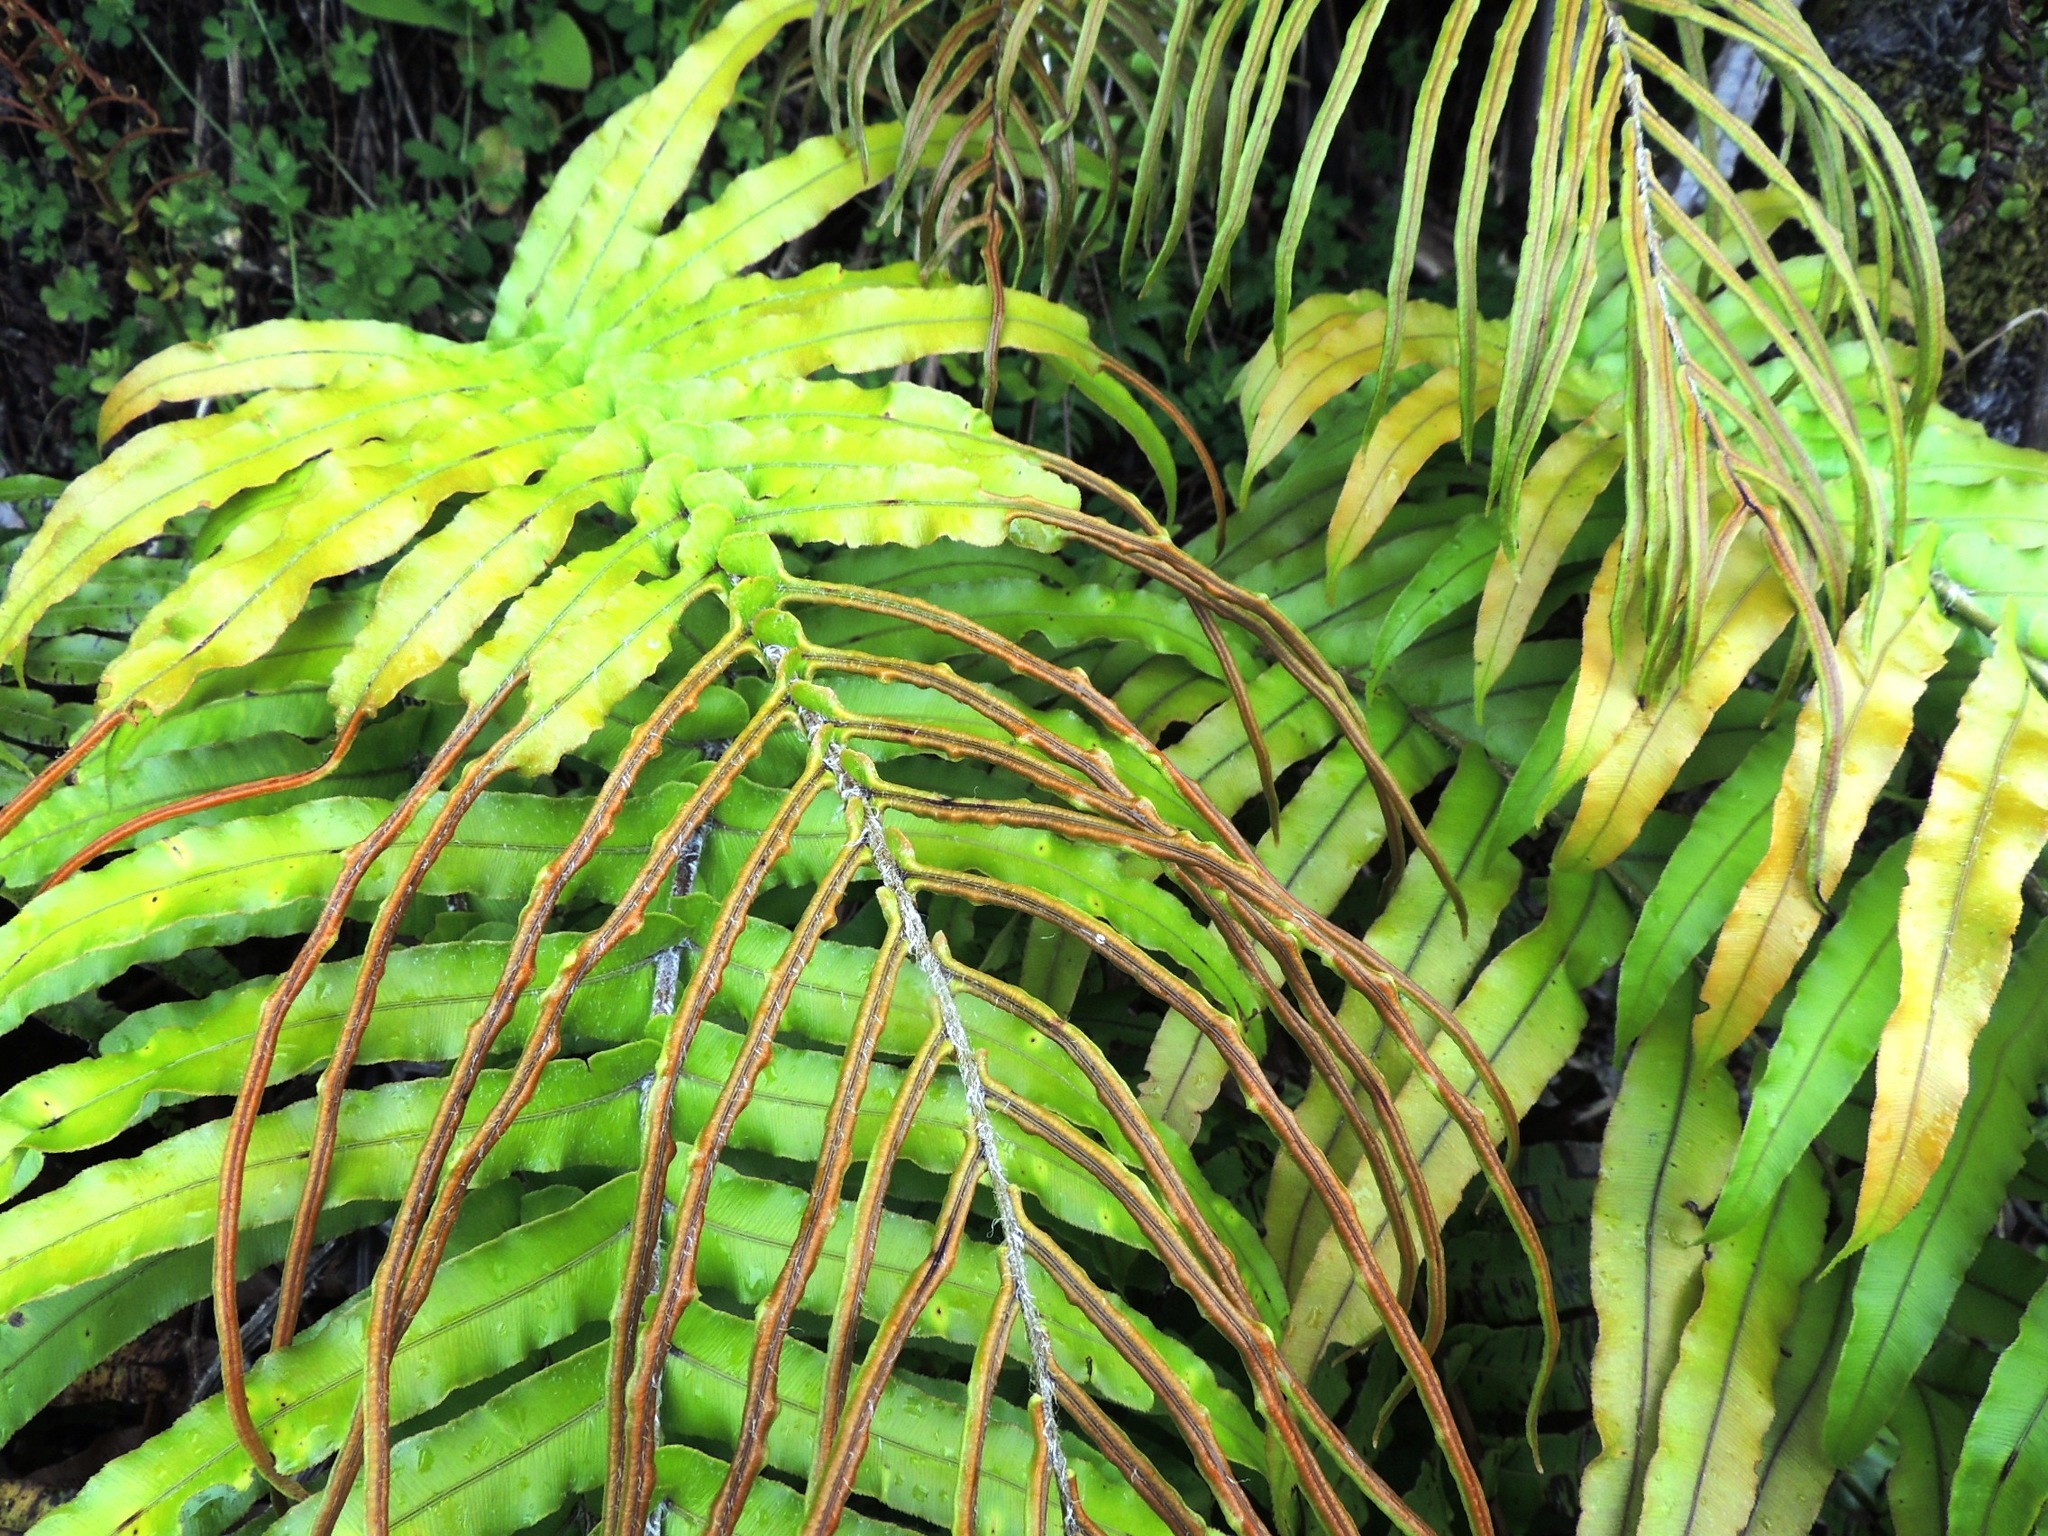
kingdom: Plantae
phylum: Tracheophyta
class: Polypodiopsida
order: Polypodiales
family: Blechnaceae
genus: Parablechnum
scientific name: Parablechnum novae-zelandiae
